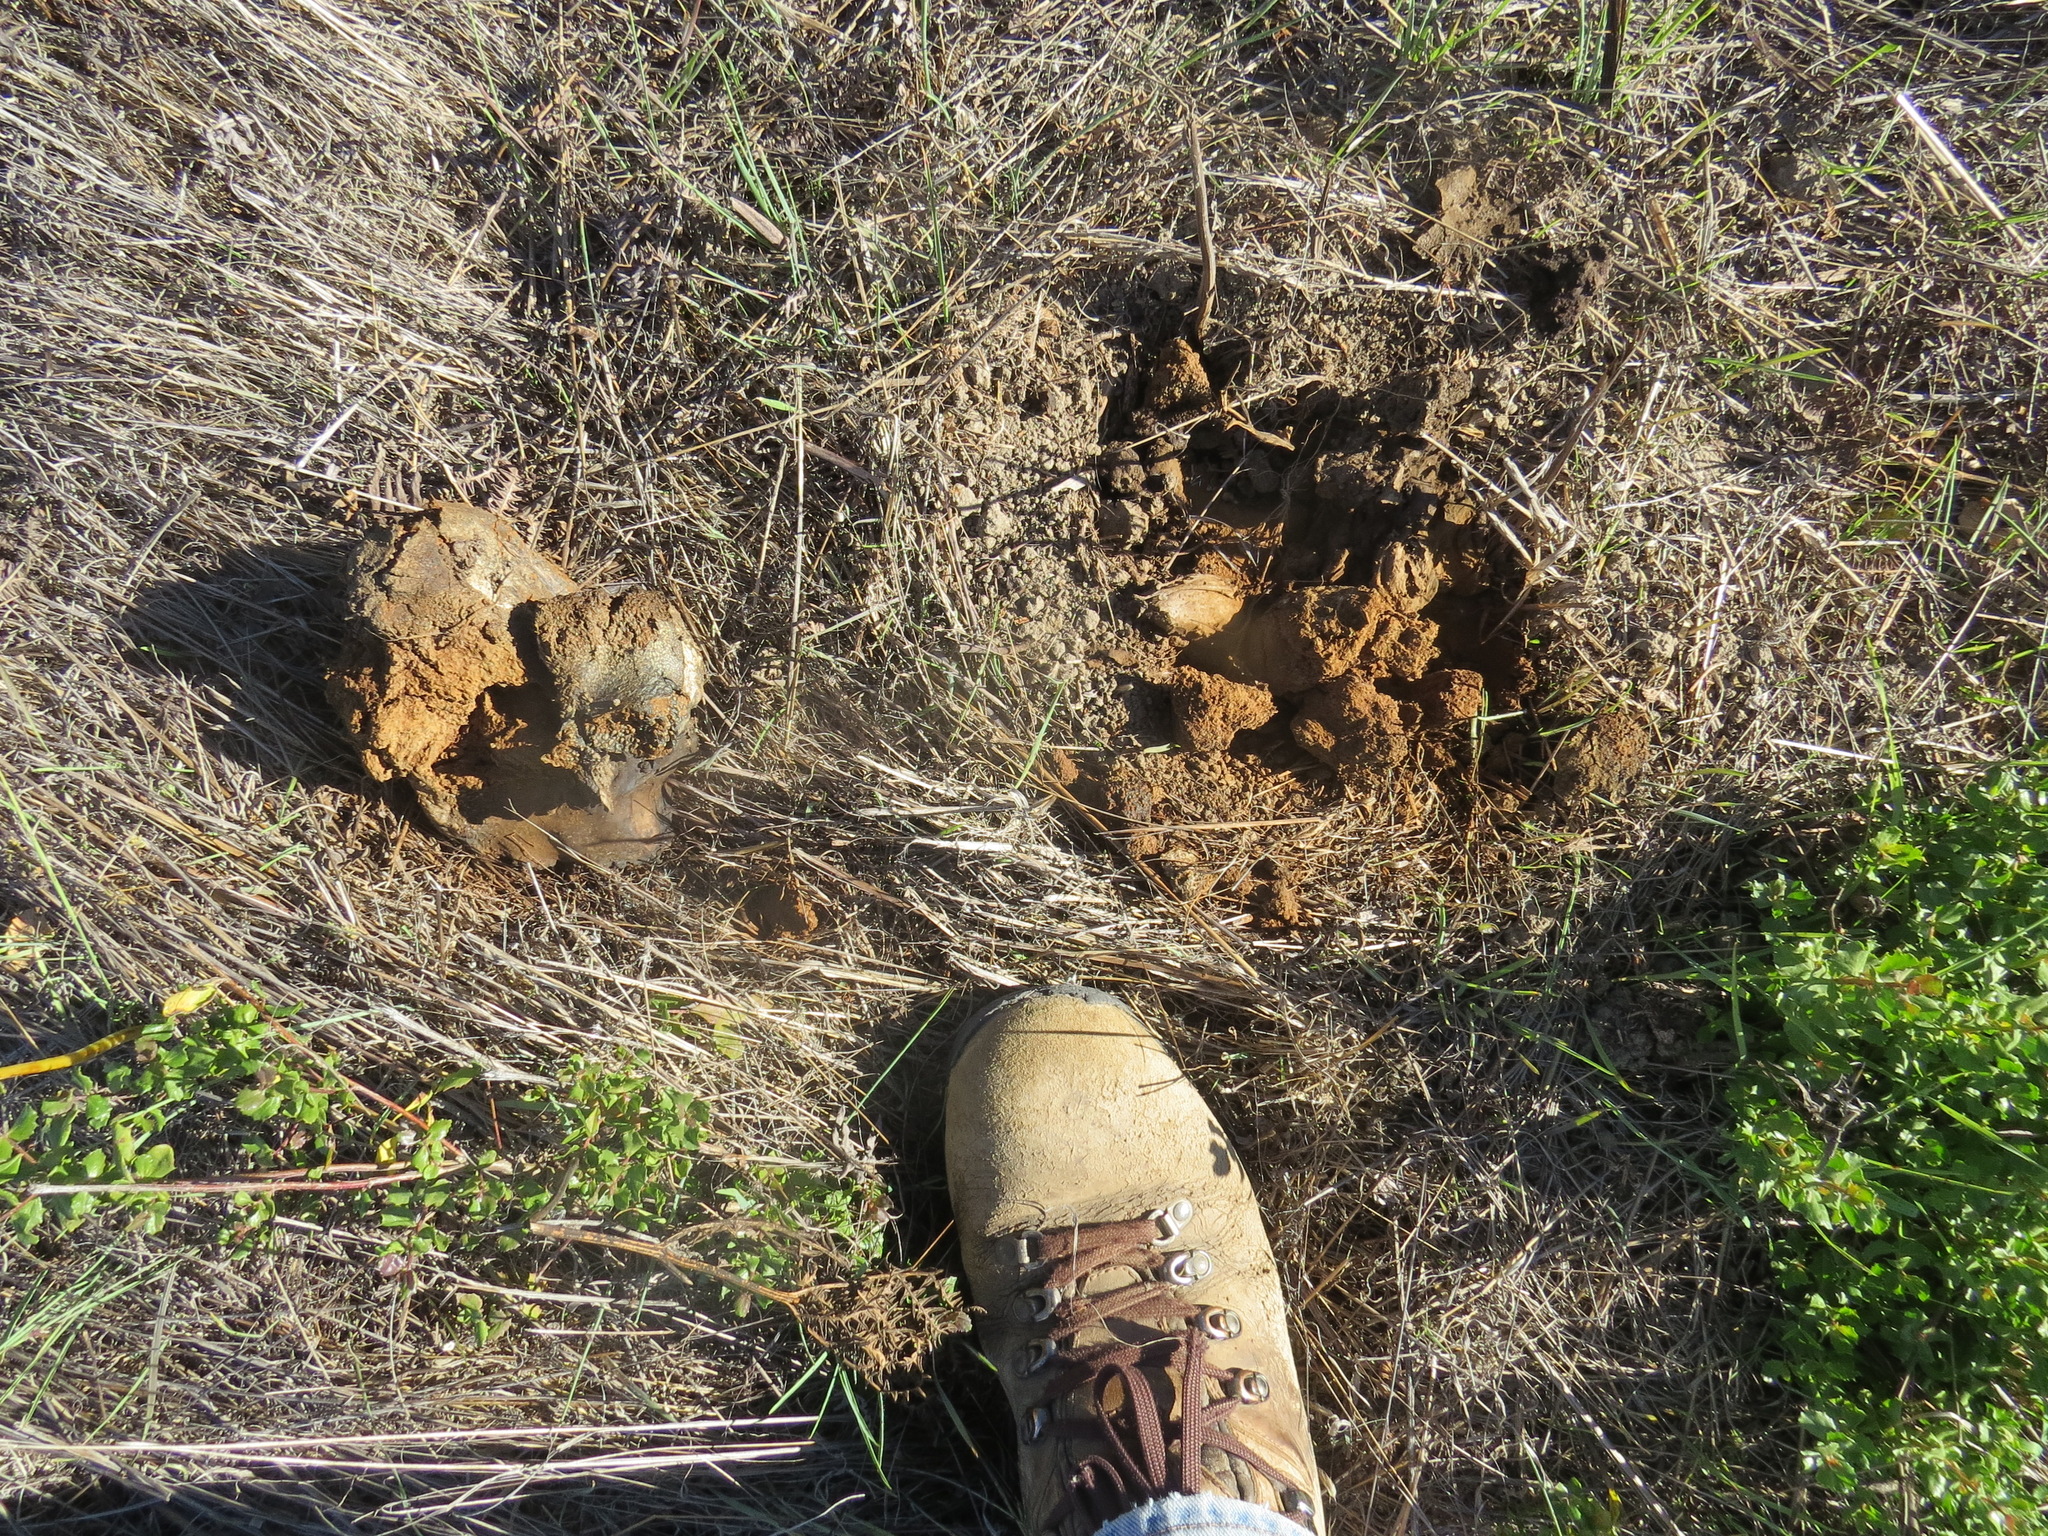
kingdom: Fungi
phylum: Basidiomycota
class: Agaricomycetes
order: Boletales
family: Sclerodermataceae
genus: Pisolithus
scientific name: Pisolithus tinctorius
